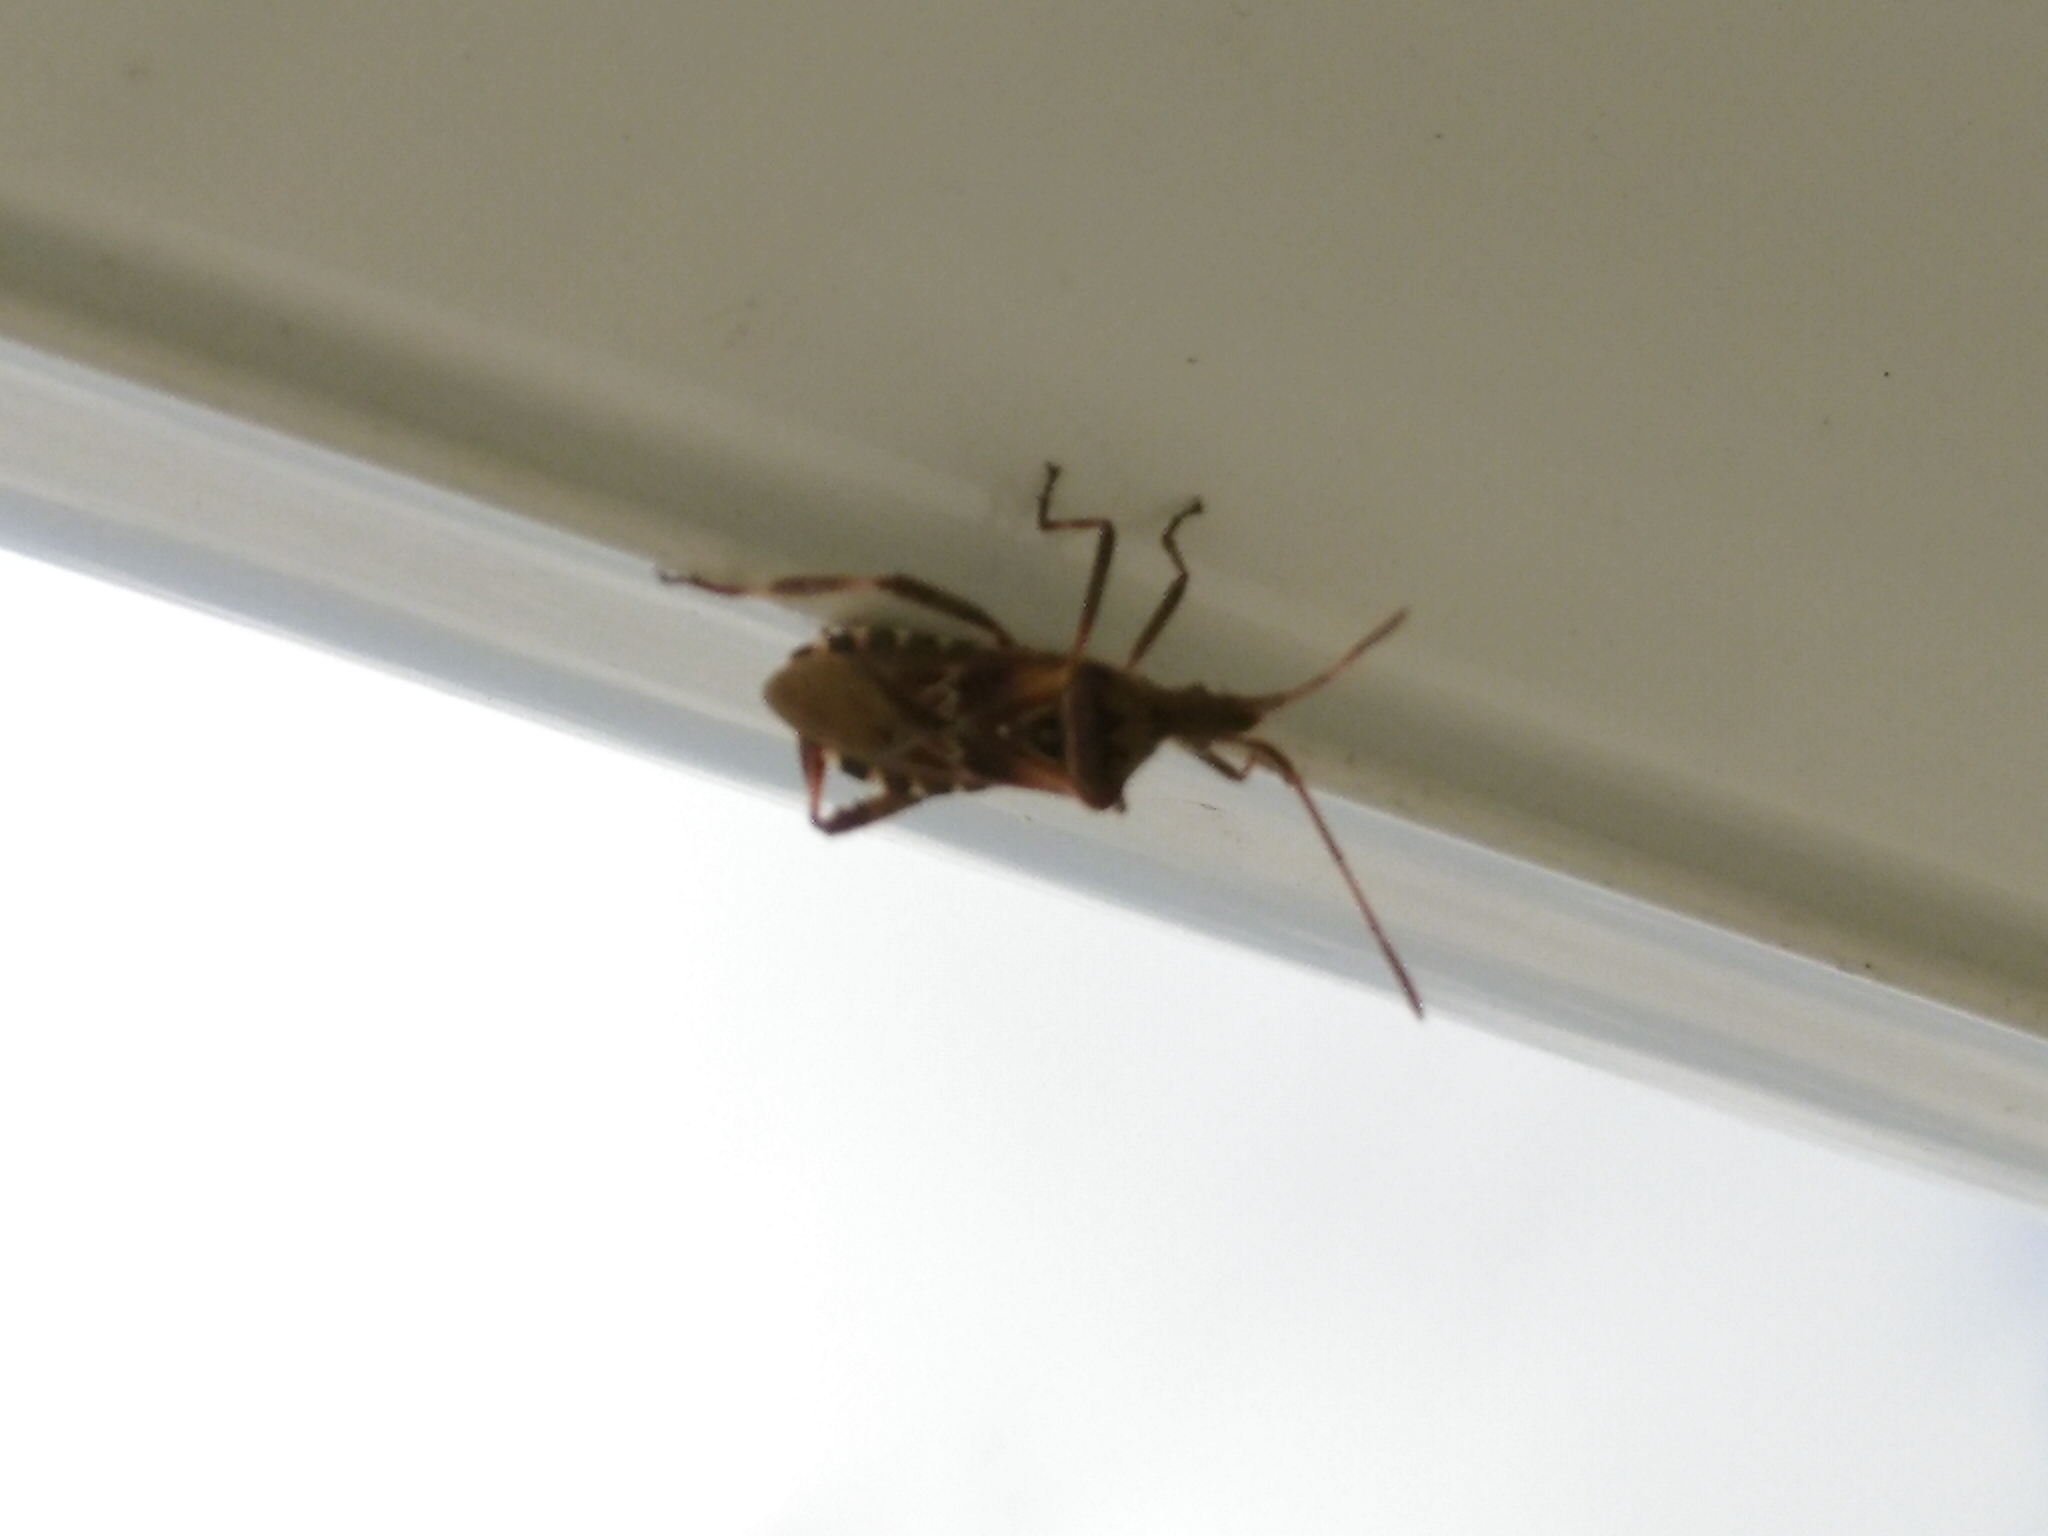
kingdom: Animalia
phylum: Arthropoda
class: Insecta
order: Hemiptera
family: Coreidae
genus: Leptoglossus
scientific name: Leptoglossus occidentalis
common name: Western conifer-seed bug
